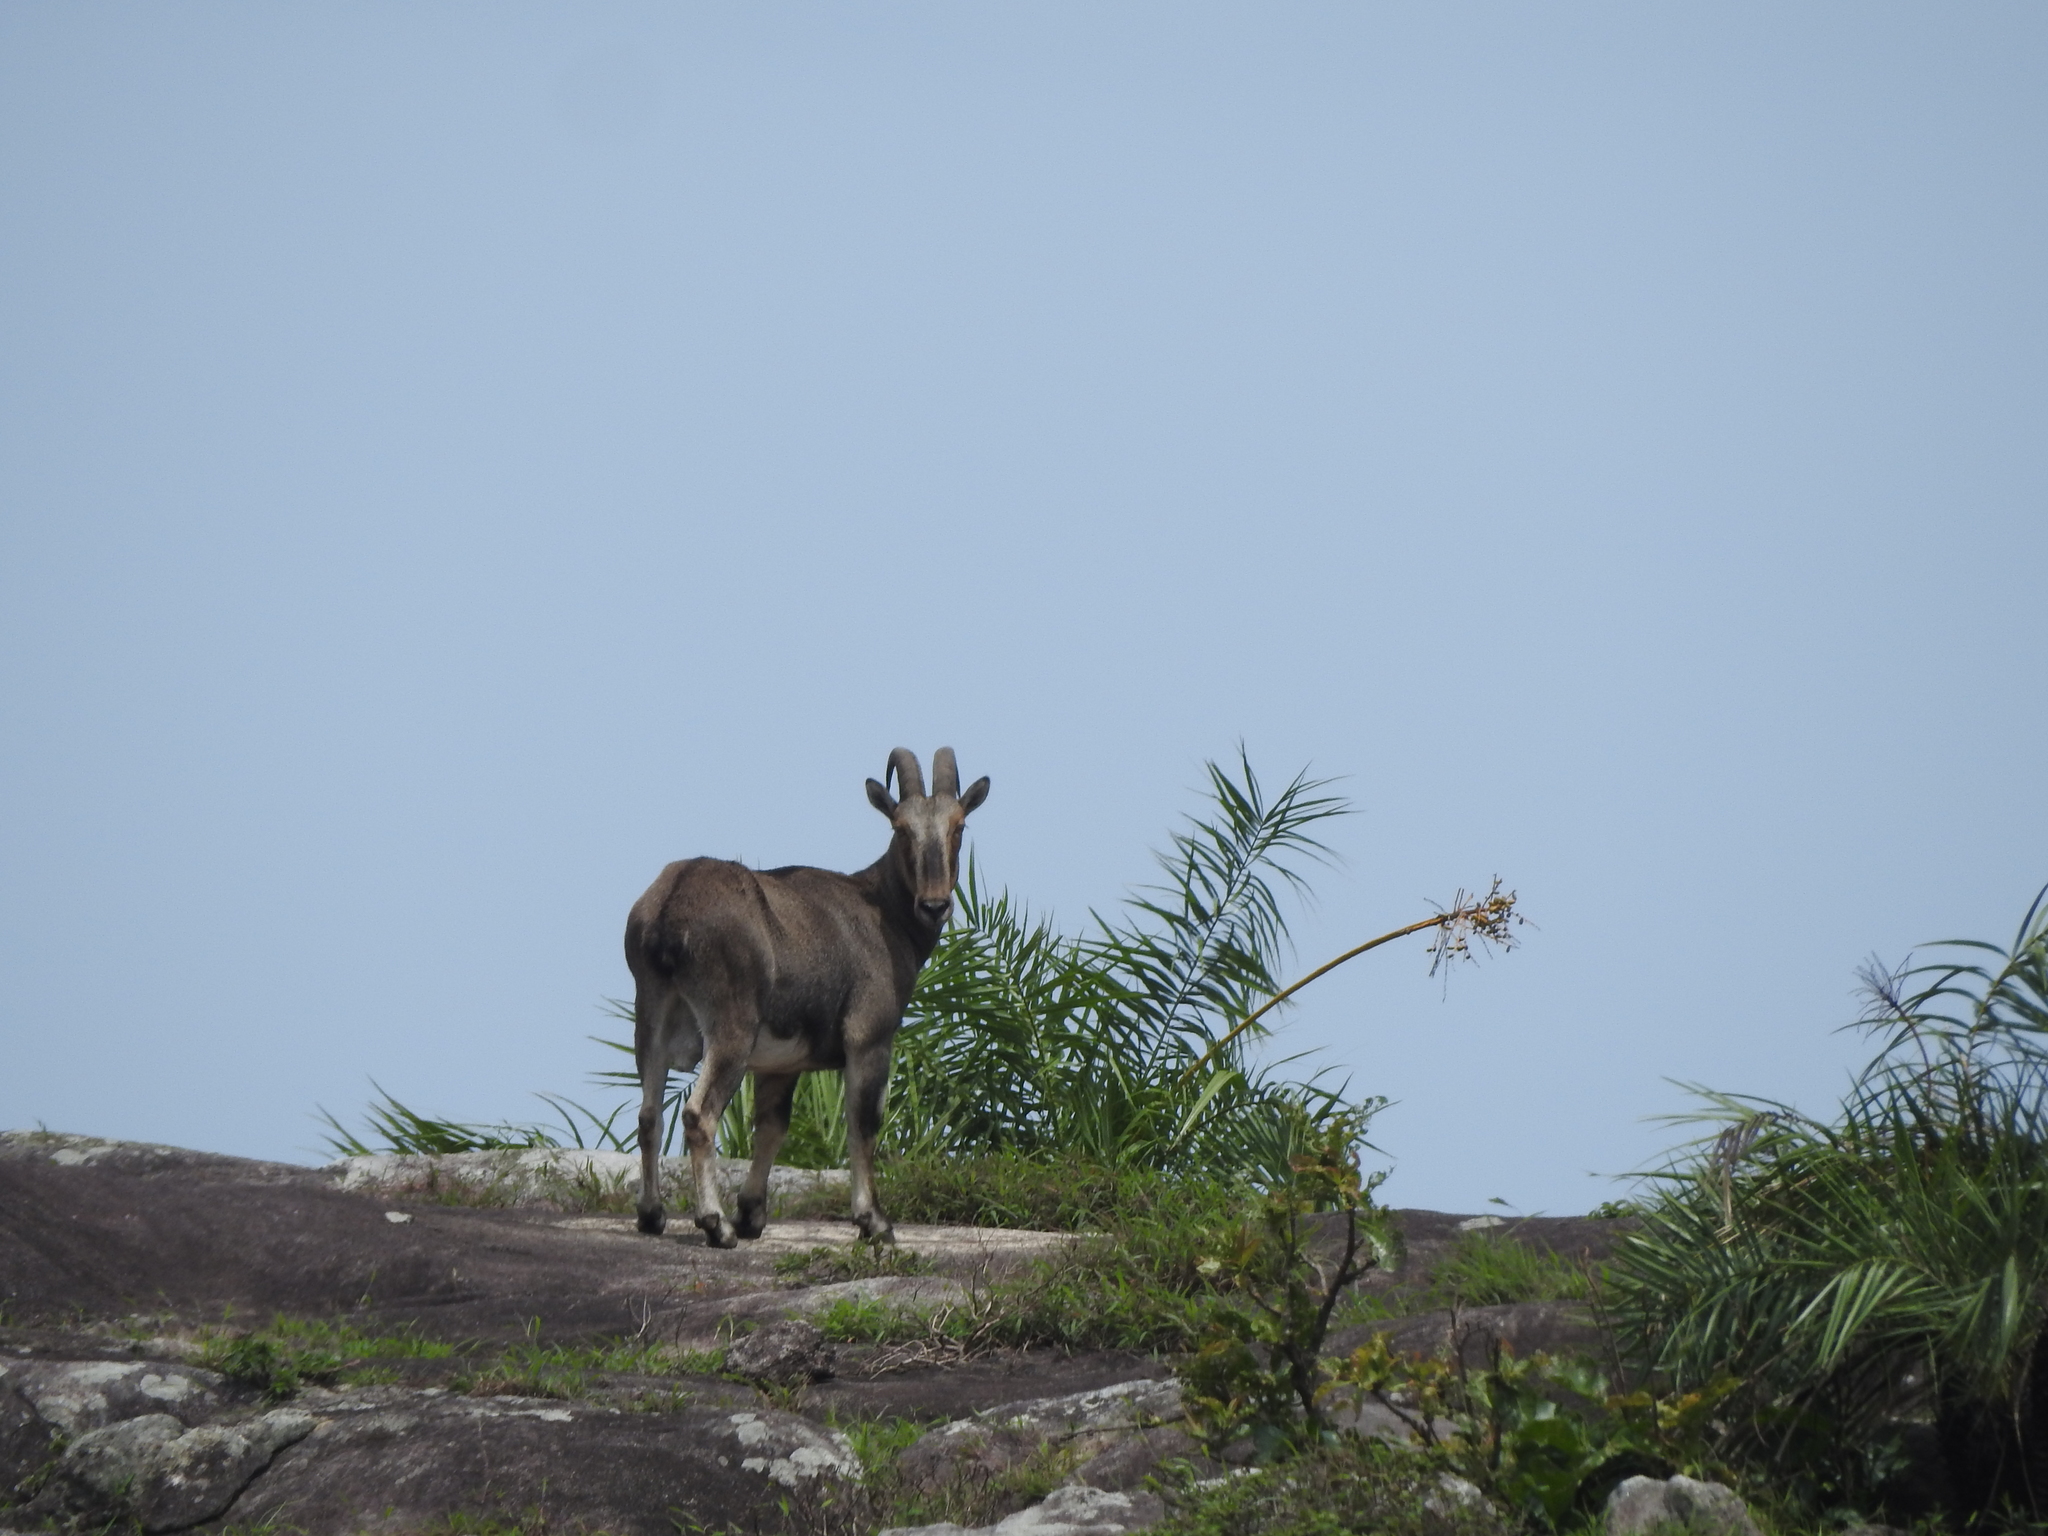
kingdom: Animalia
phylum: Chordata
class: Mammalia
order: Artiodactyla
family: Bovidae
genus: Hemitragus
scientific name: Hemitragus hylocrius
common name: Nilgiri tahr
